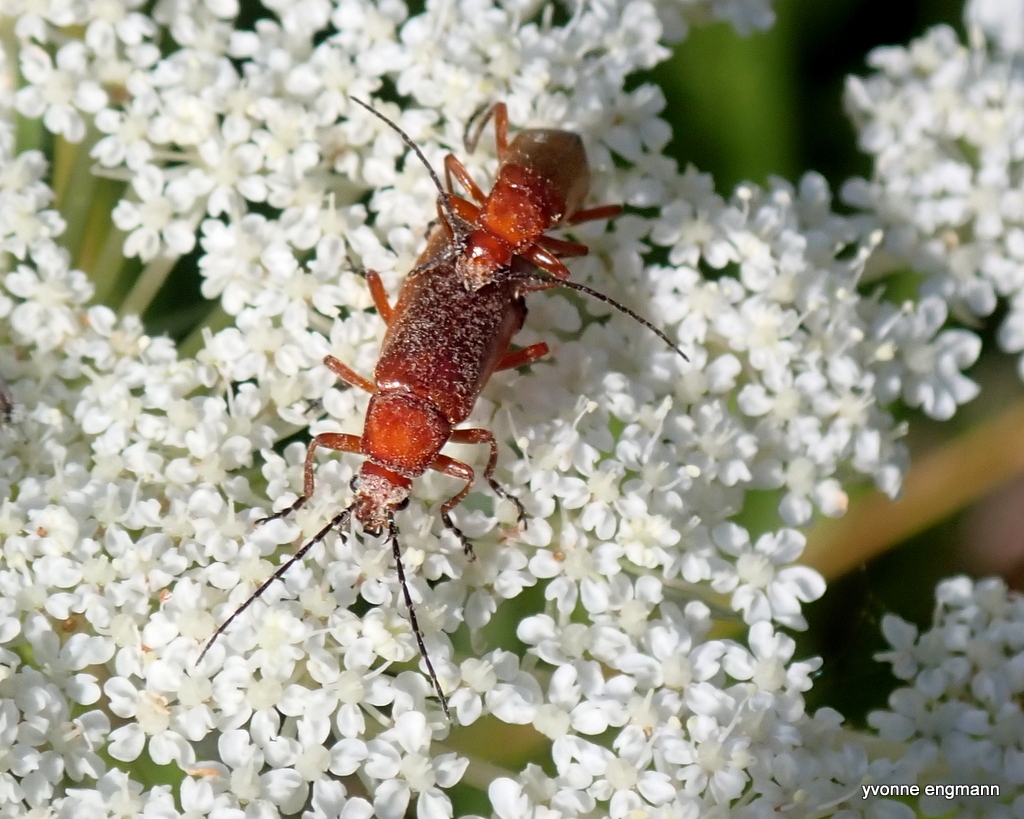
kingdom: Animalia
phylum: Arthropoda
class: Insecta
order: Coleoptera
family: Cantharidae
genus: Rhagonycha
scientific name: Rhagonycha fulva
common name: Common red soldier beetle
